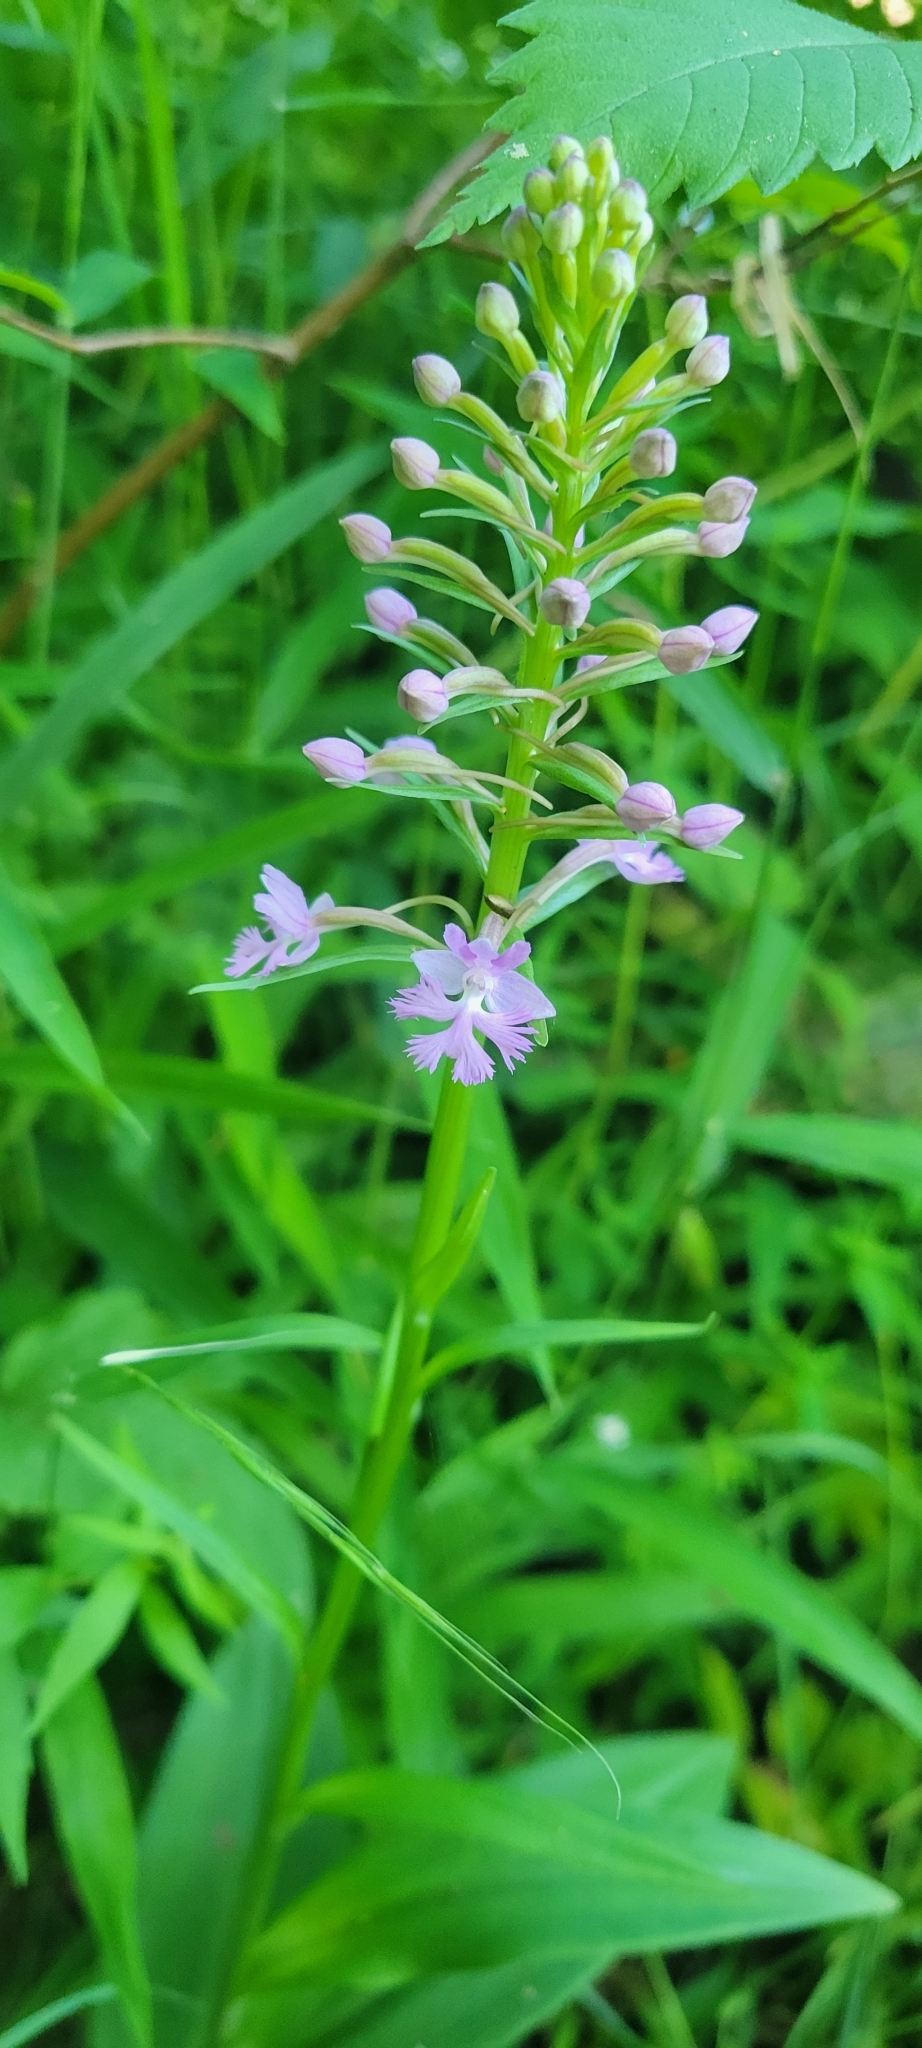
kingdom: Plantae
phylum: Tracheophyta
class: Liliopsida
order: Asparagales
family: Orchidaceae
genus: Platanthera
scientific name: Platanthera psycodes
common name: Lesser purple fringed orchid
